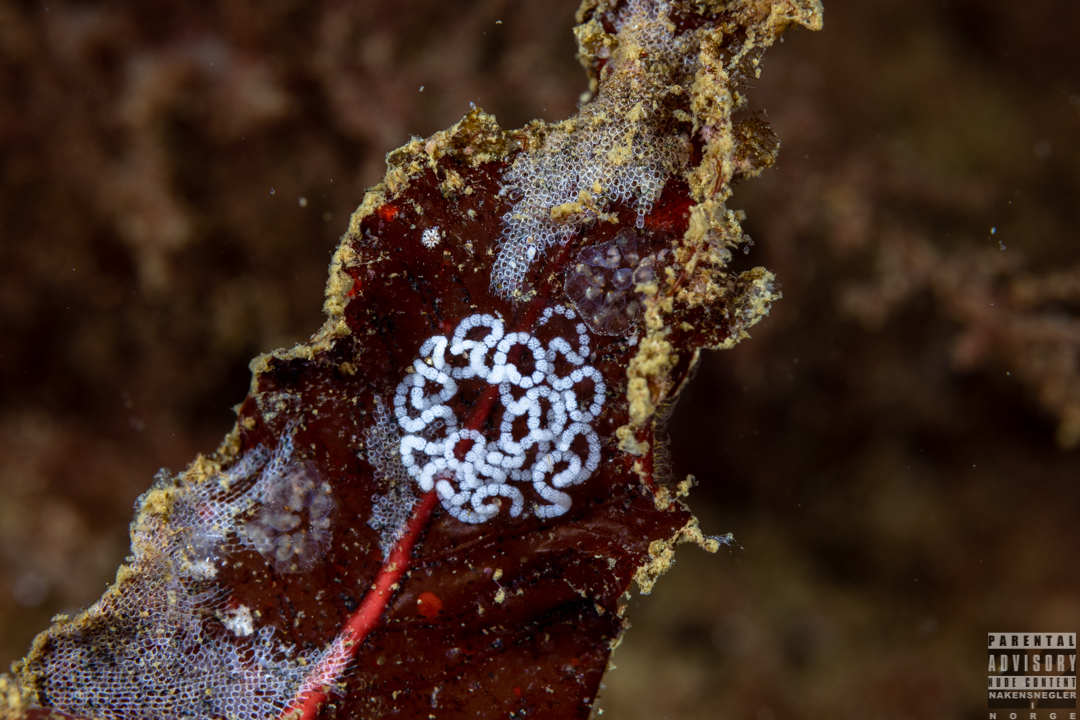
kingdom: Animalia
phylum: Mollusca
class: Gastropoda
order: Nudibranchia
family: Janolidae
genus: Antiopella
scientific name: Antiopella cristata
